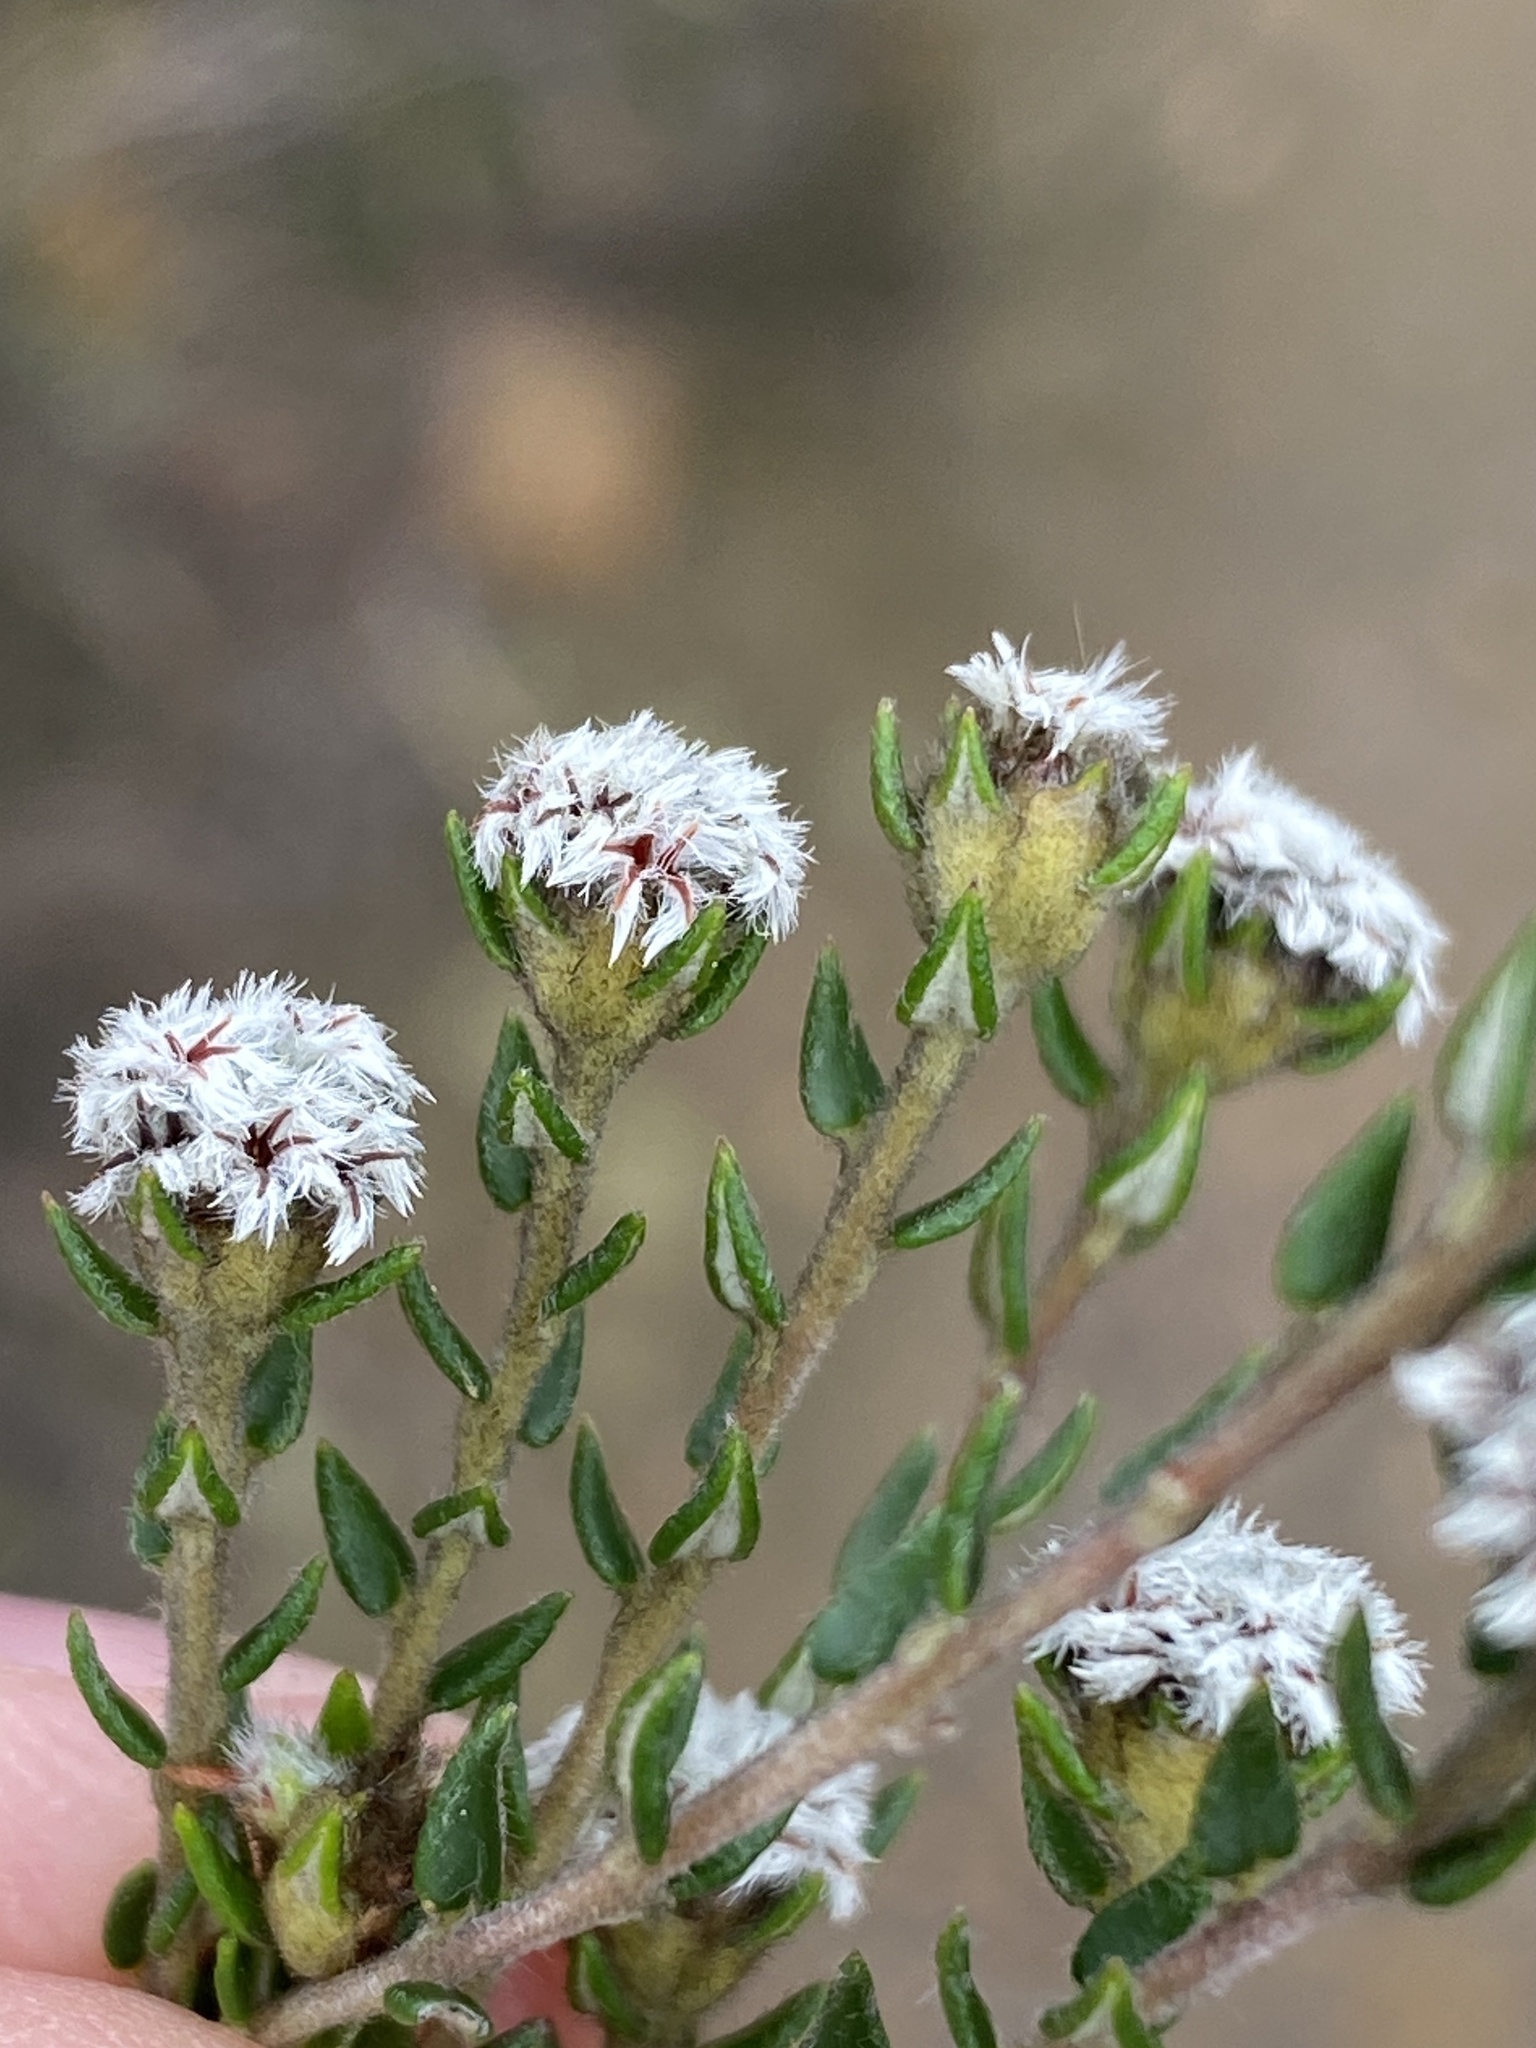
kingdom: Plantae
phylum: Tracheophyta
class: Magnoliopsida
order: Rosales
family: Rhamnaceae
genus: Phylica
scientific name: Phylica virgata
